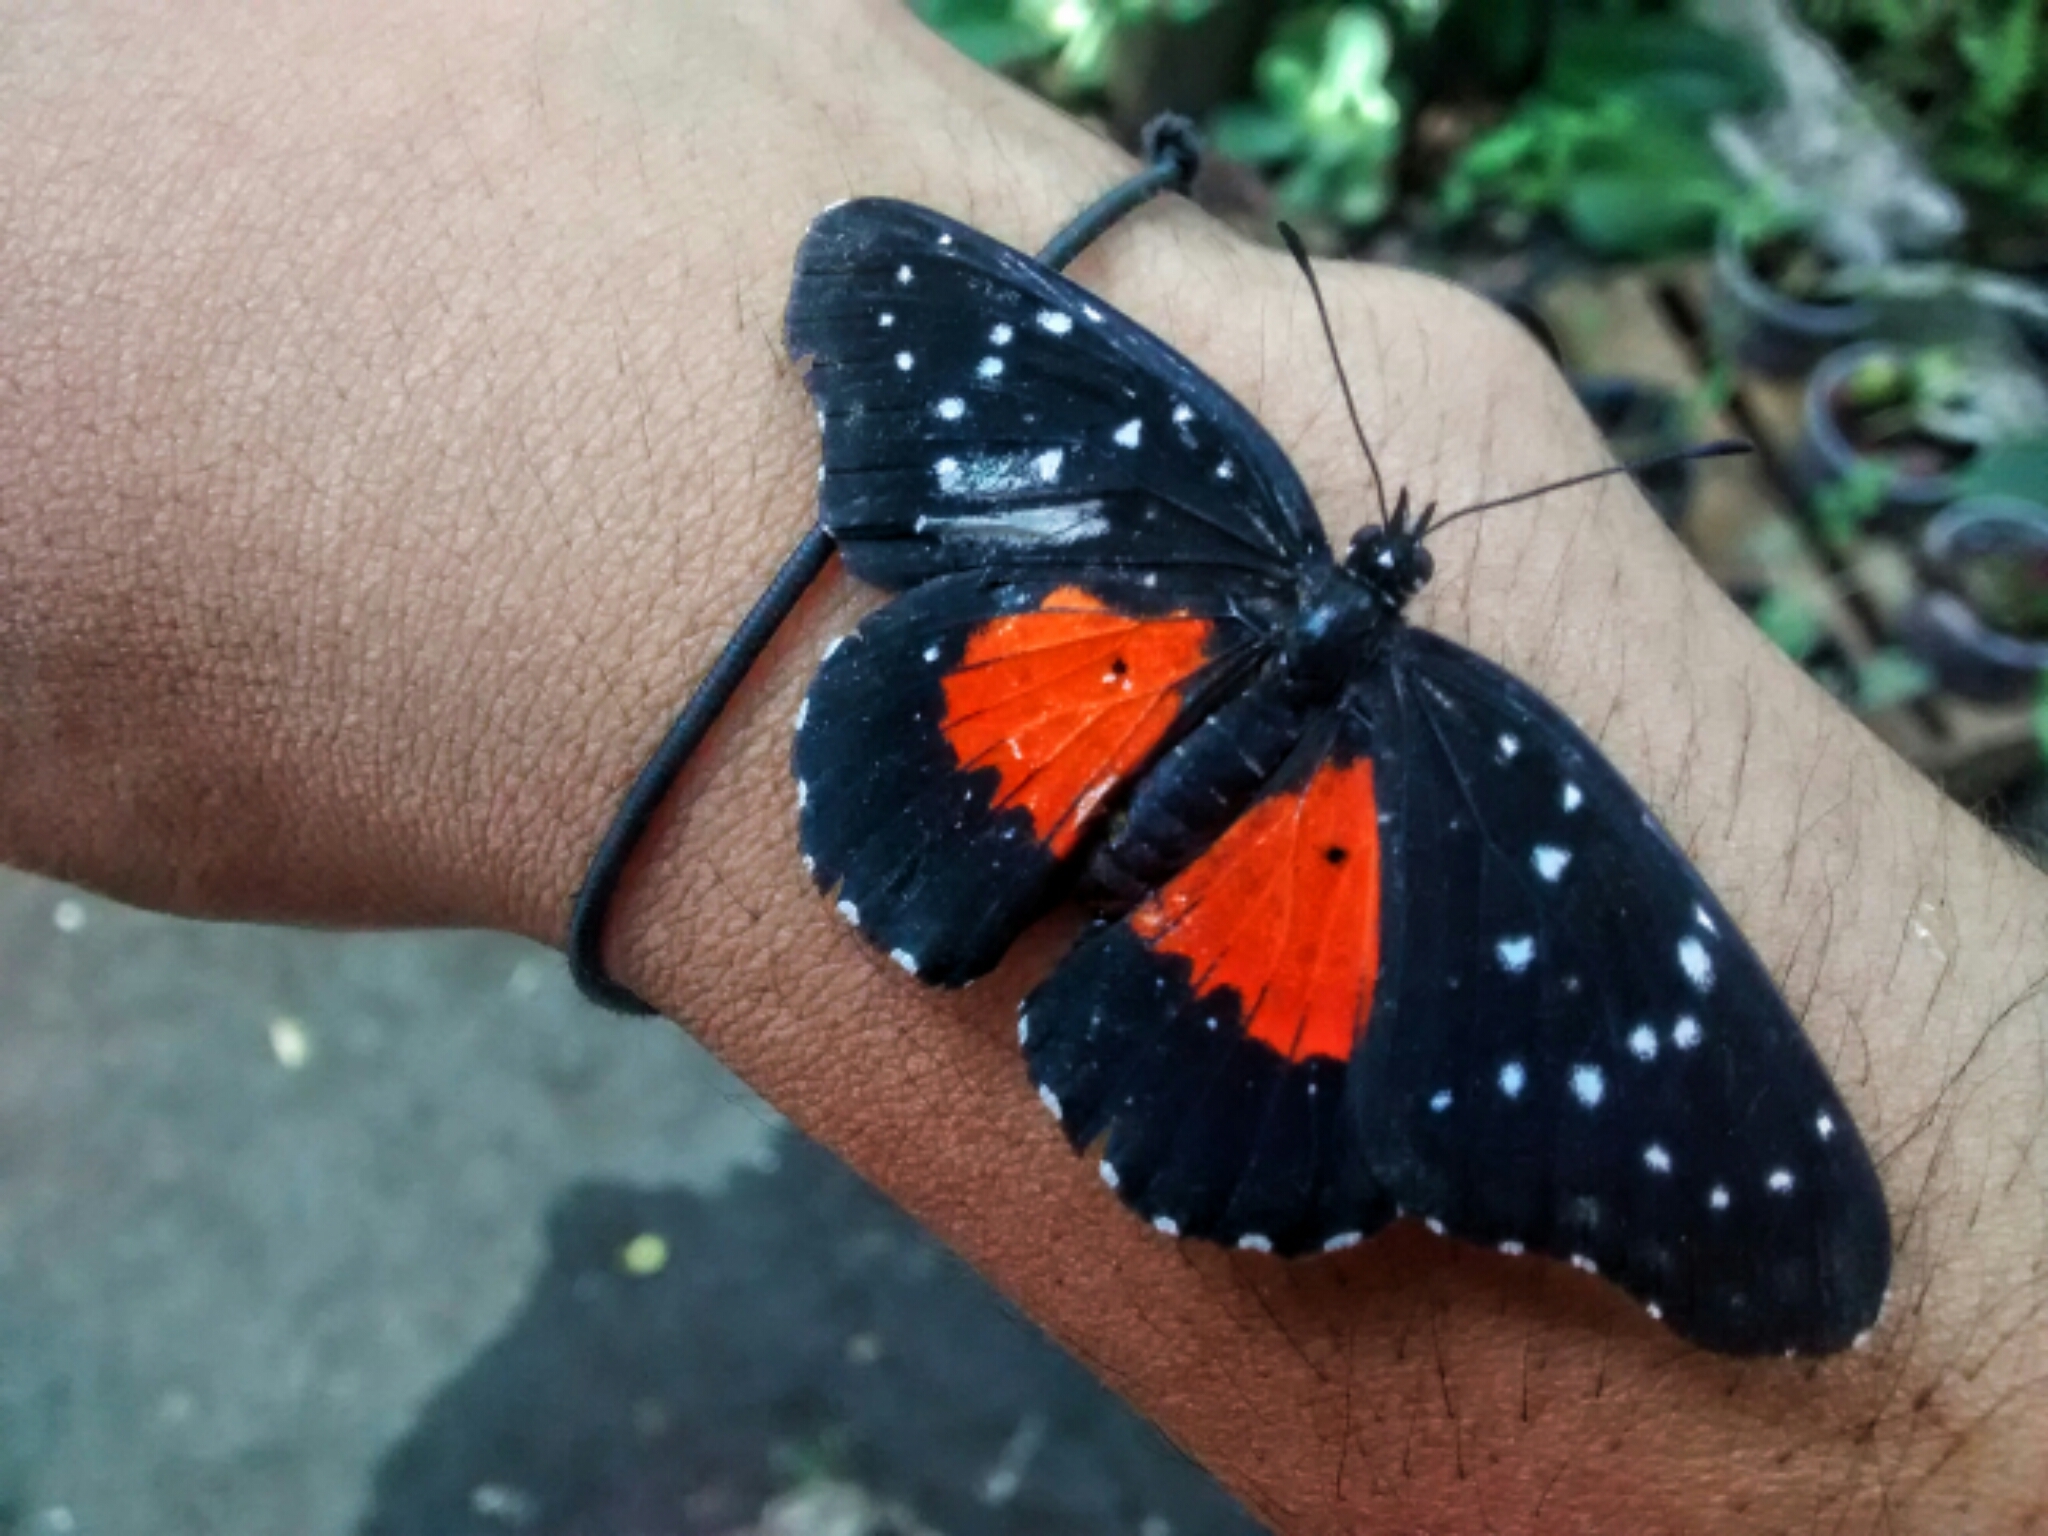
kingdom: Animalia
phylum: Arthropoda
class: Insecta
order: Lepidoptera
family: Nymphalidae
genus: Chlosyne
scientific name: Chlosyne janais
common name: Crimson patch
